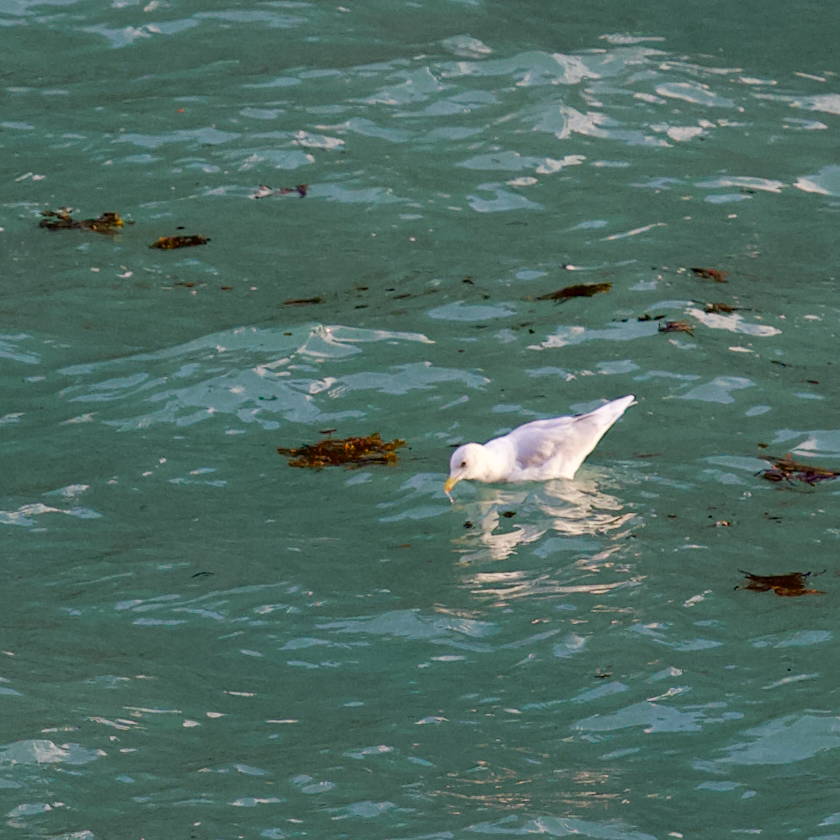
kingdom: Animalia
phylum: Chordata
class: Aves
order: Charadriiformes
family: Laridae
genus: Larus
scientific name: Larus glaucoides
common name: Iceland gull
